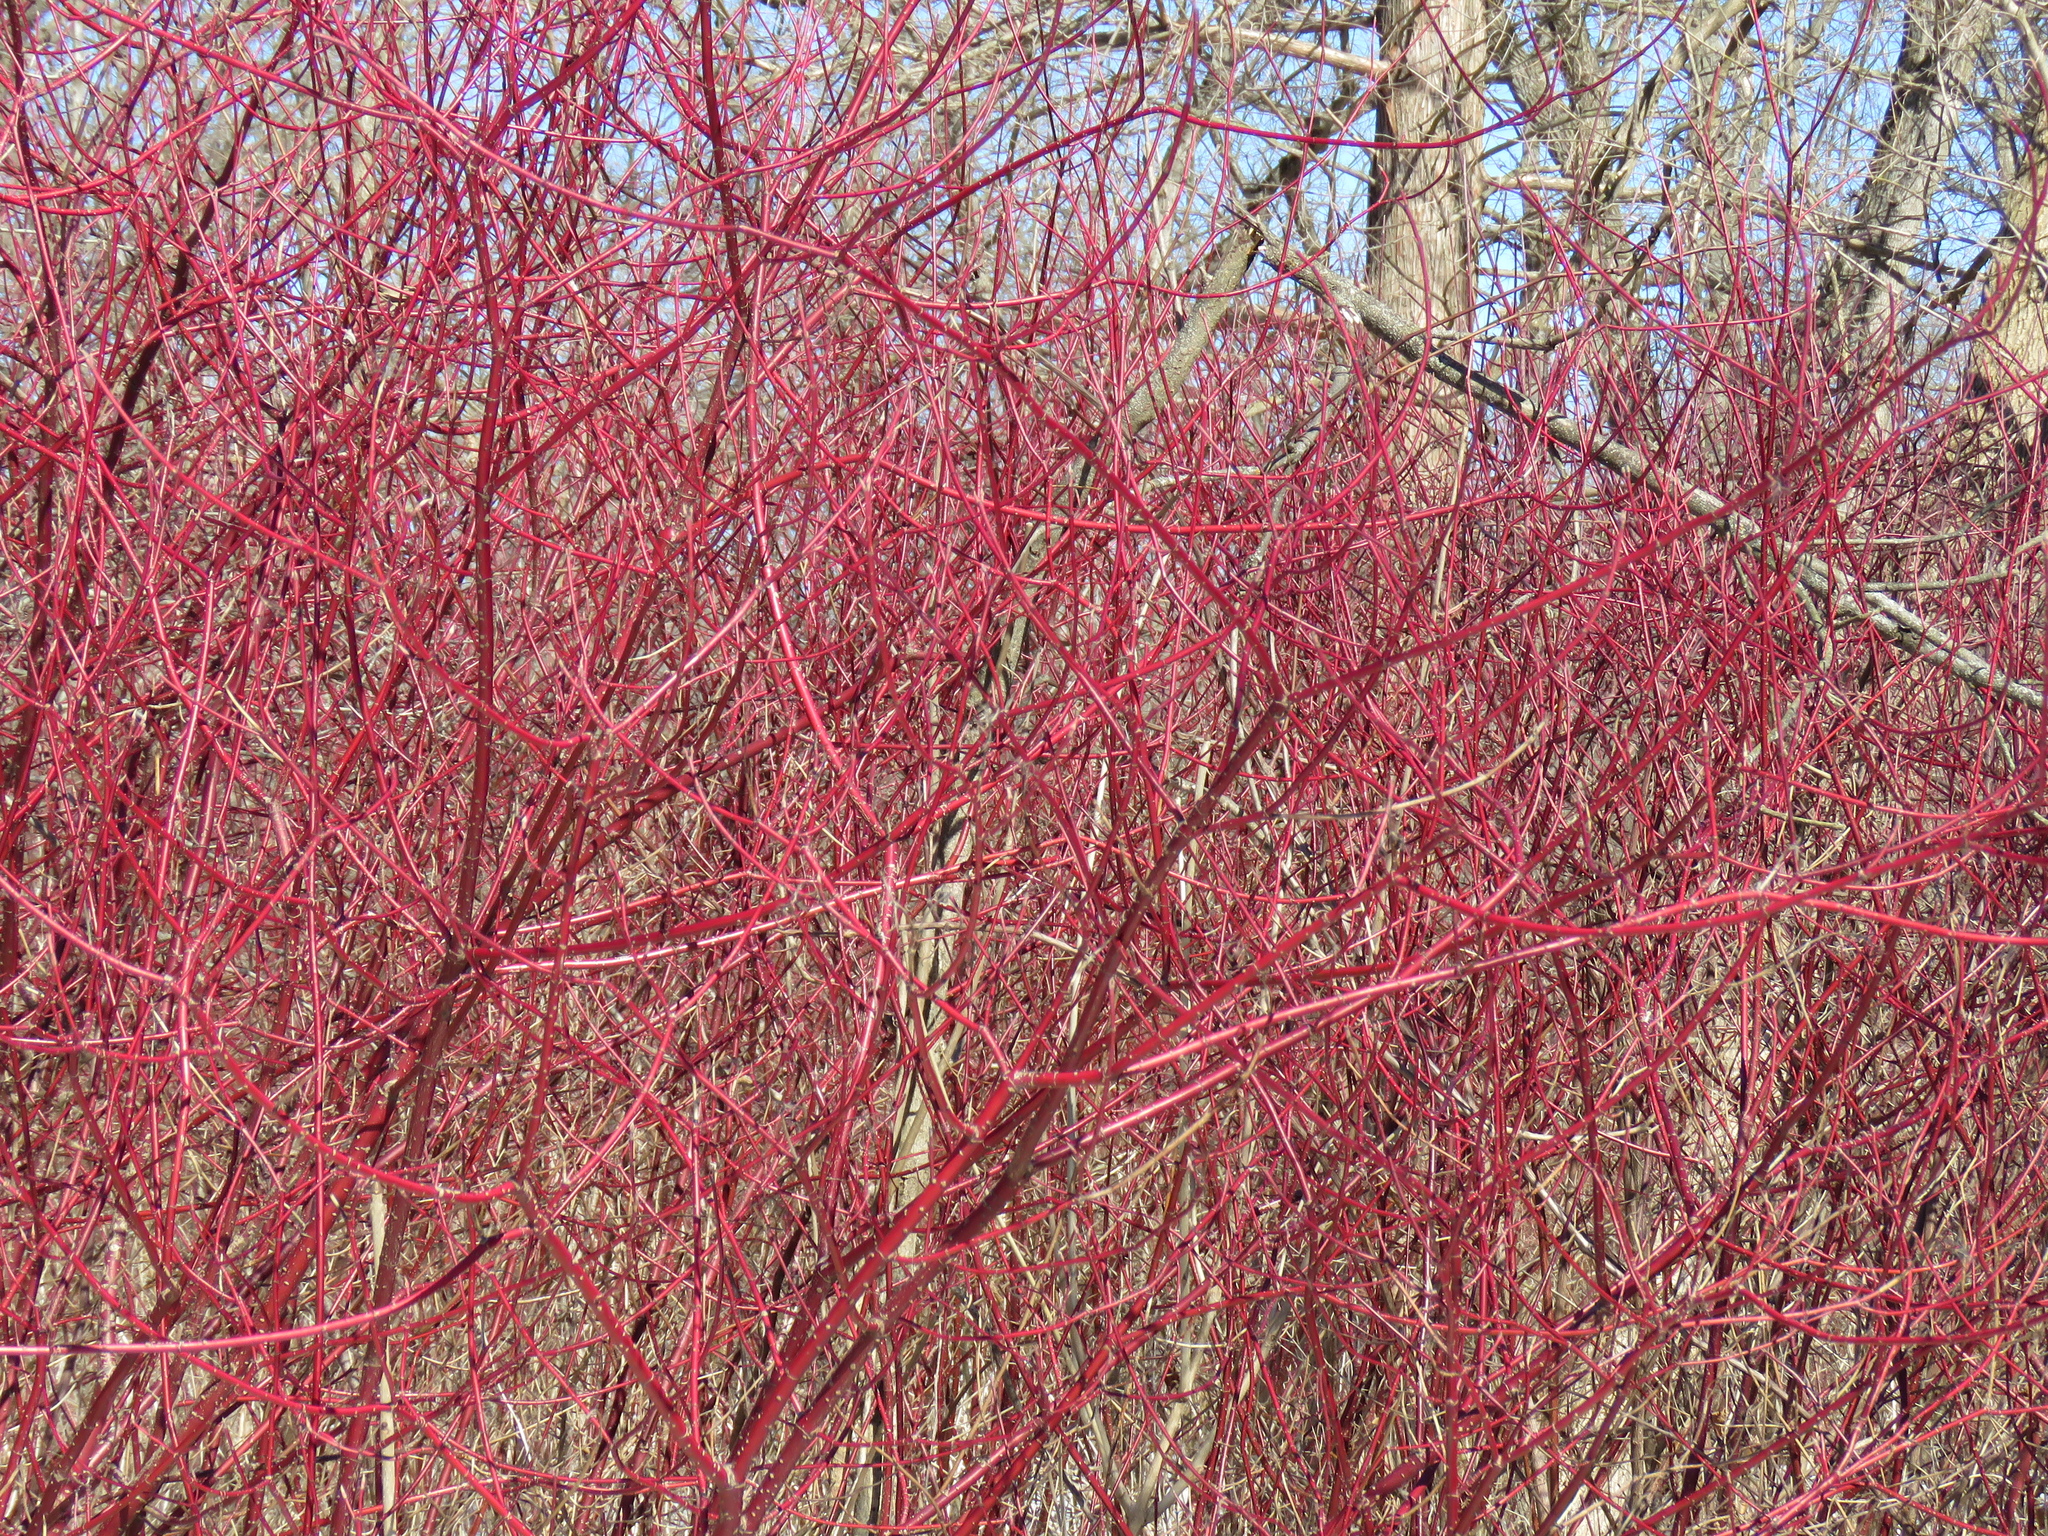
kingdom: Plantae
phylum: Tracheophyta
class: Magnoliopsida
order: Cornales
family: Cornaceae
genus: Cornus
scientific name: Cornus sericea
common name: Red-osier dogwood
